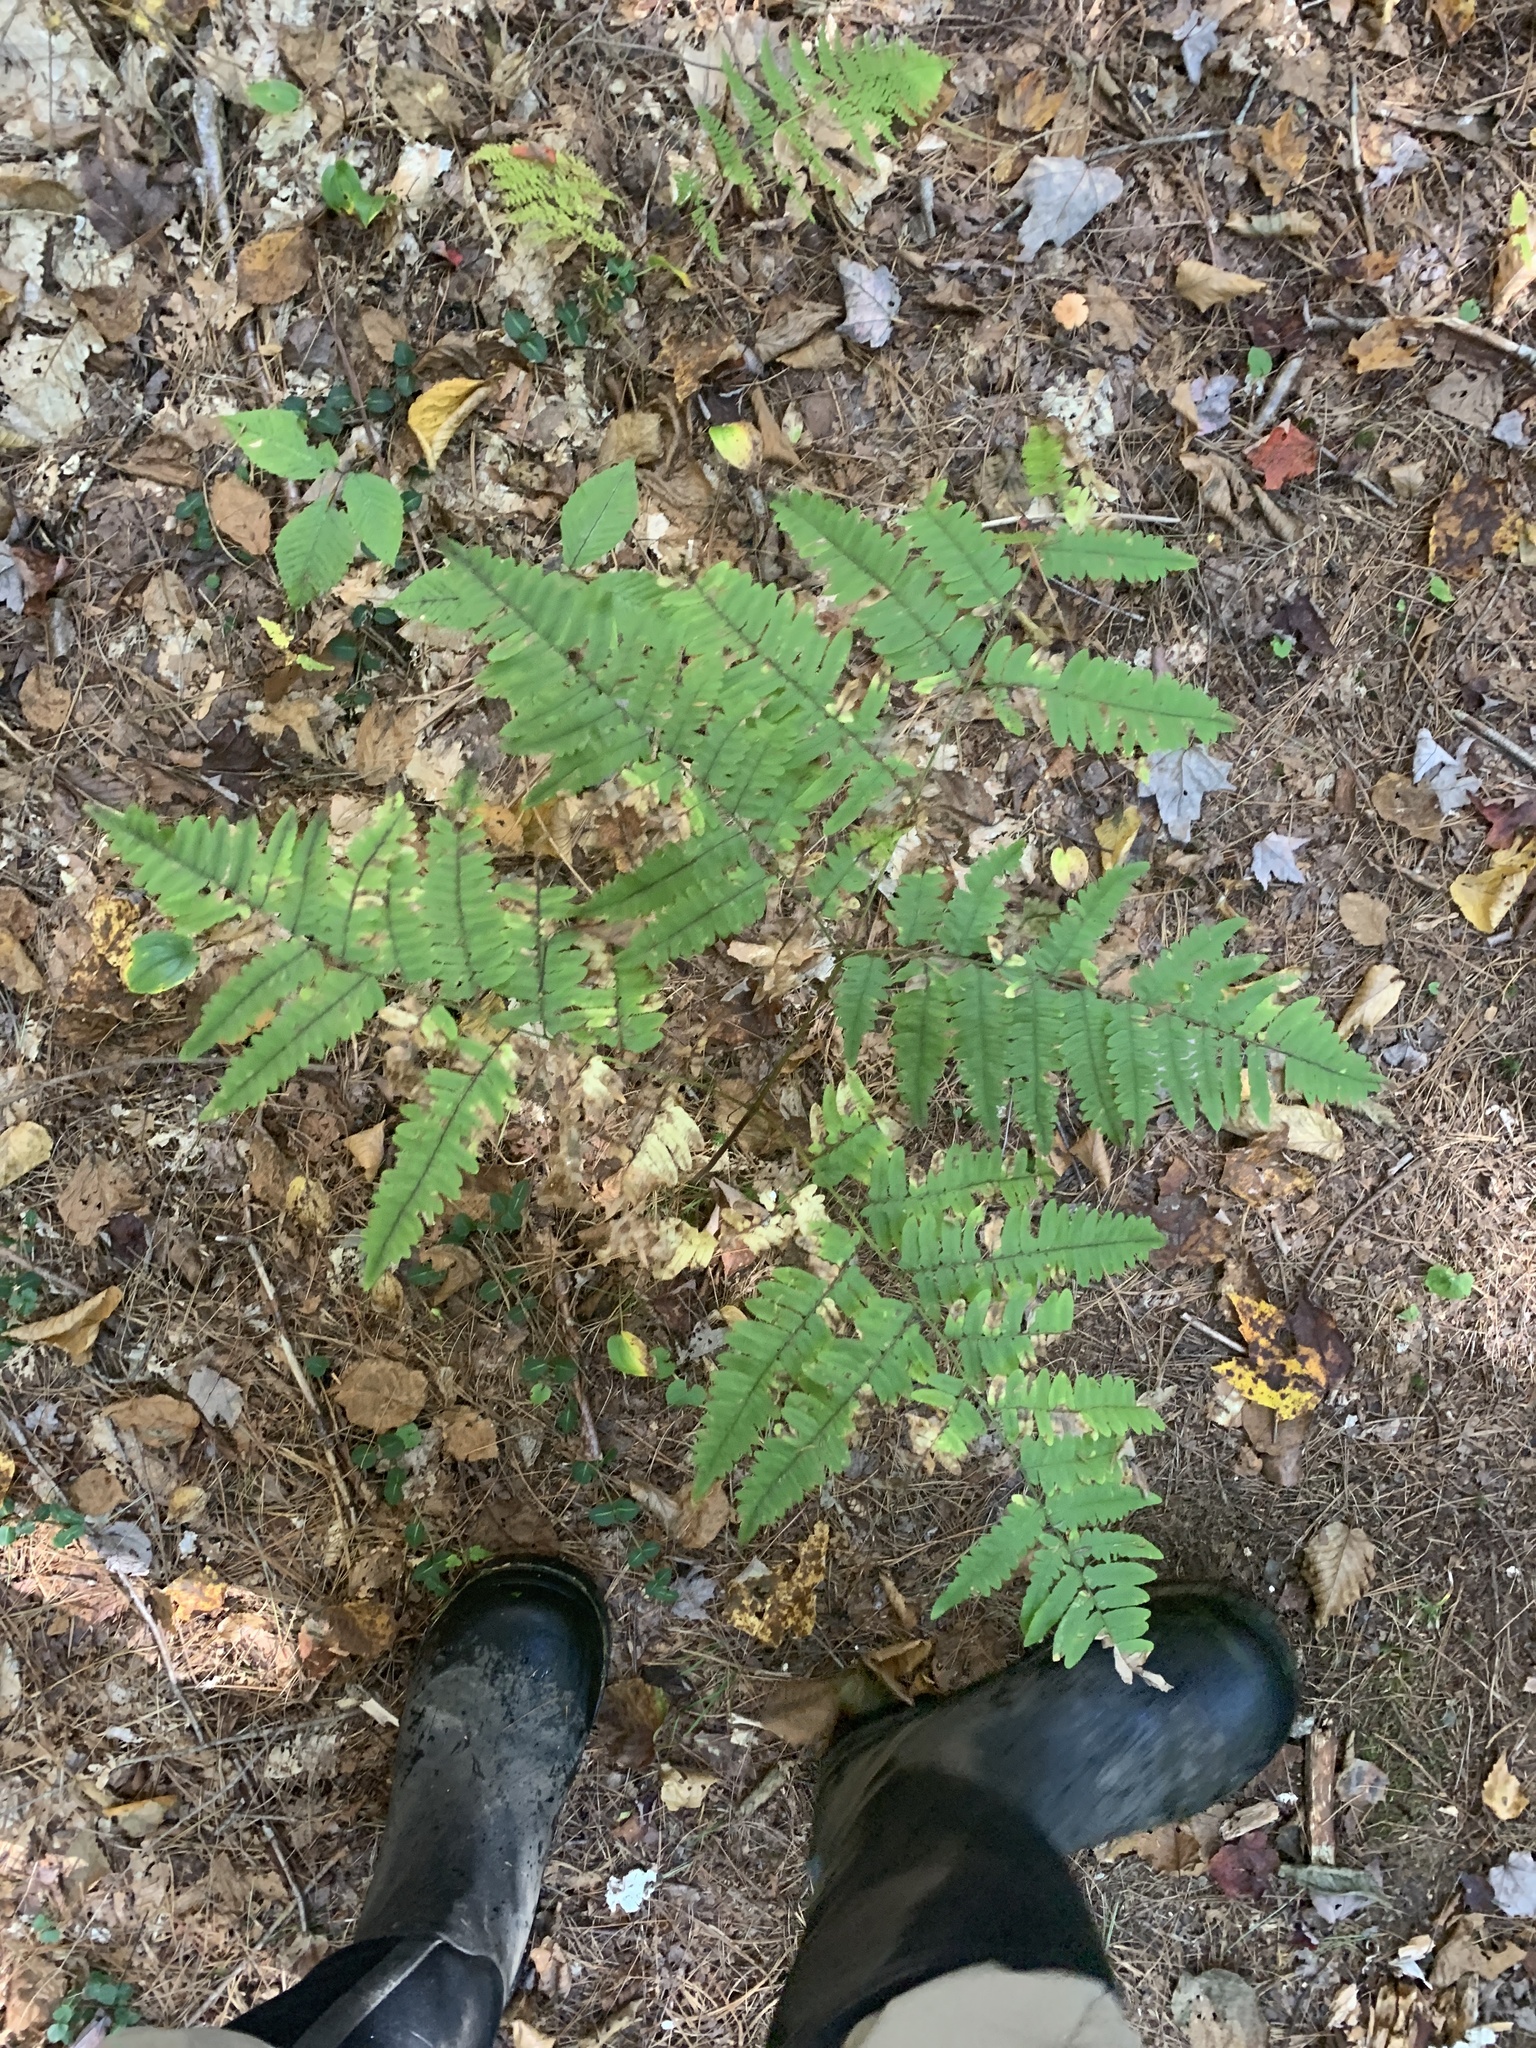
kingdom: Plantae
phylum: Tracheophyta
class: Polypodiopsida
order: Polypodiales
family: Dennstaedtiaceae
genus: Pteridium
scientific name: Pteridium aquilinum
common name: Bracken
